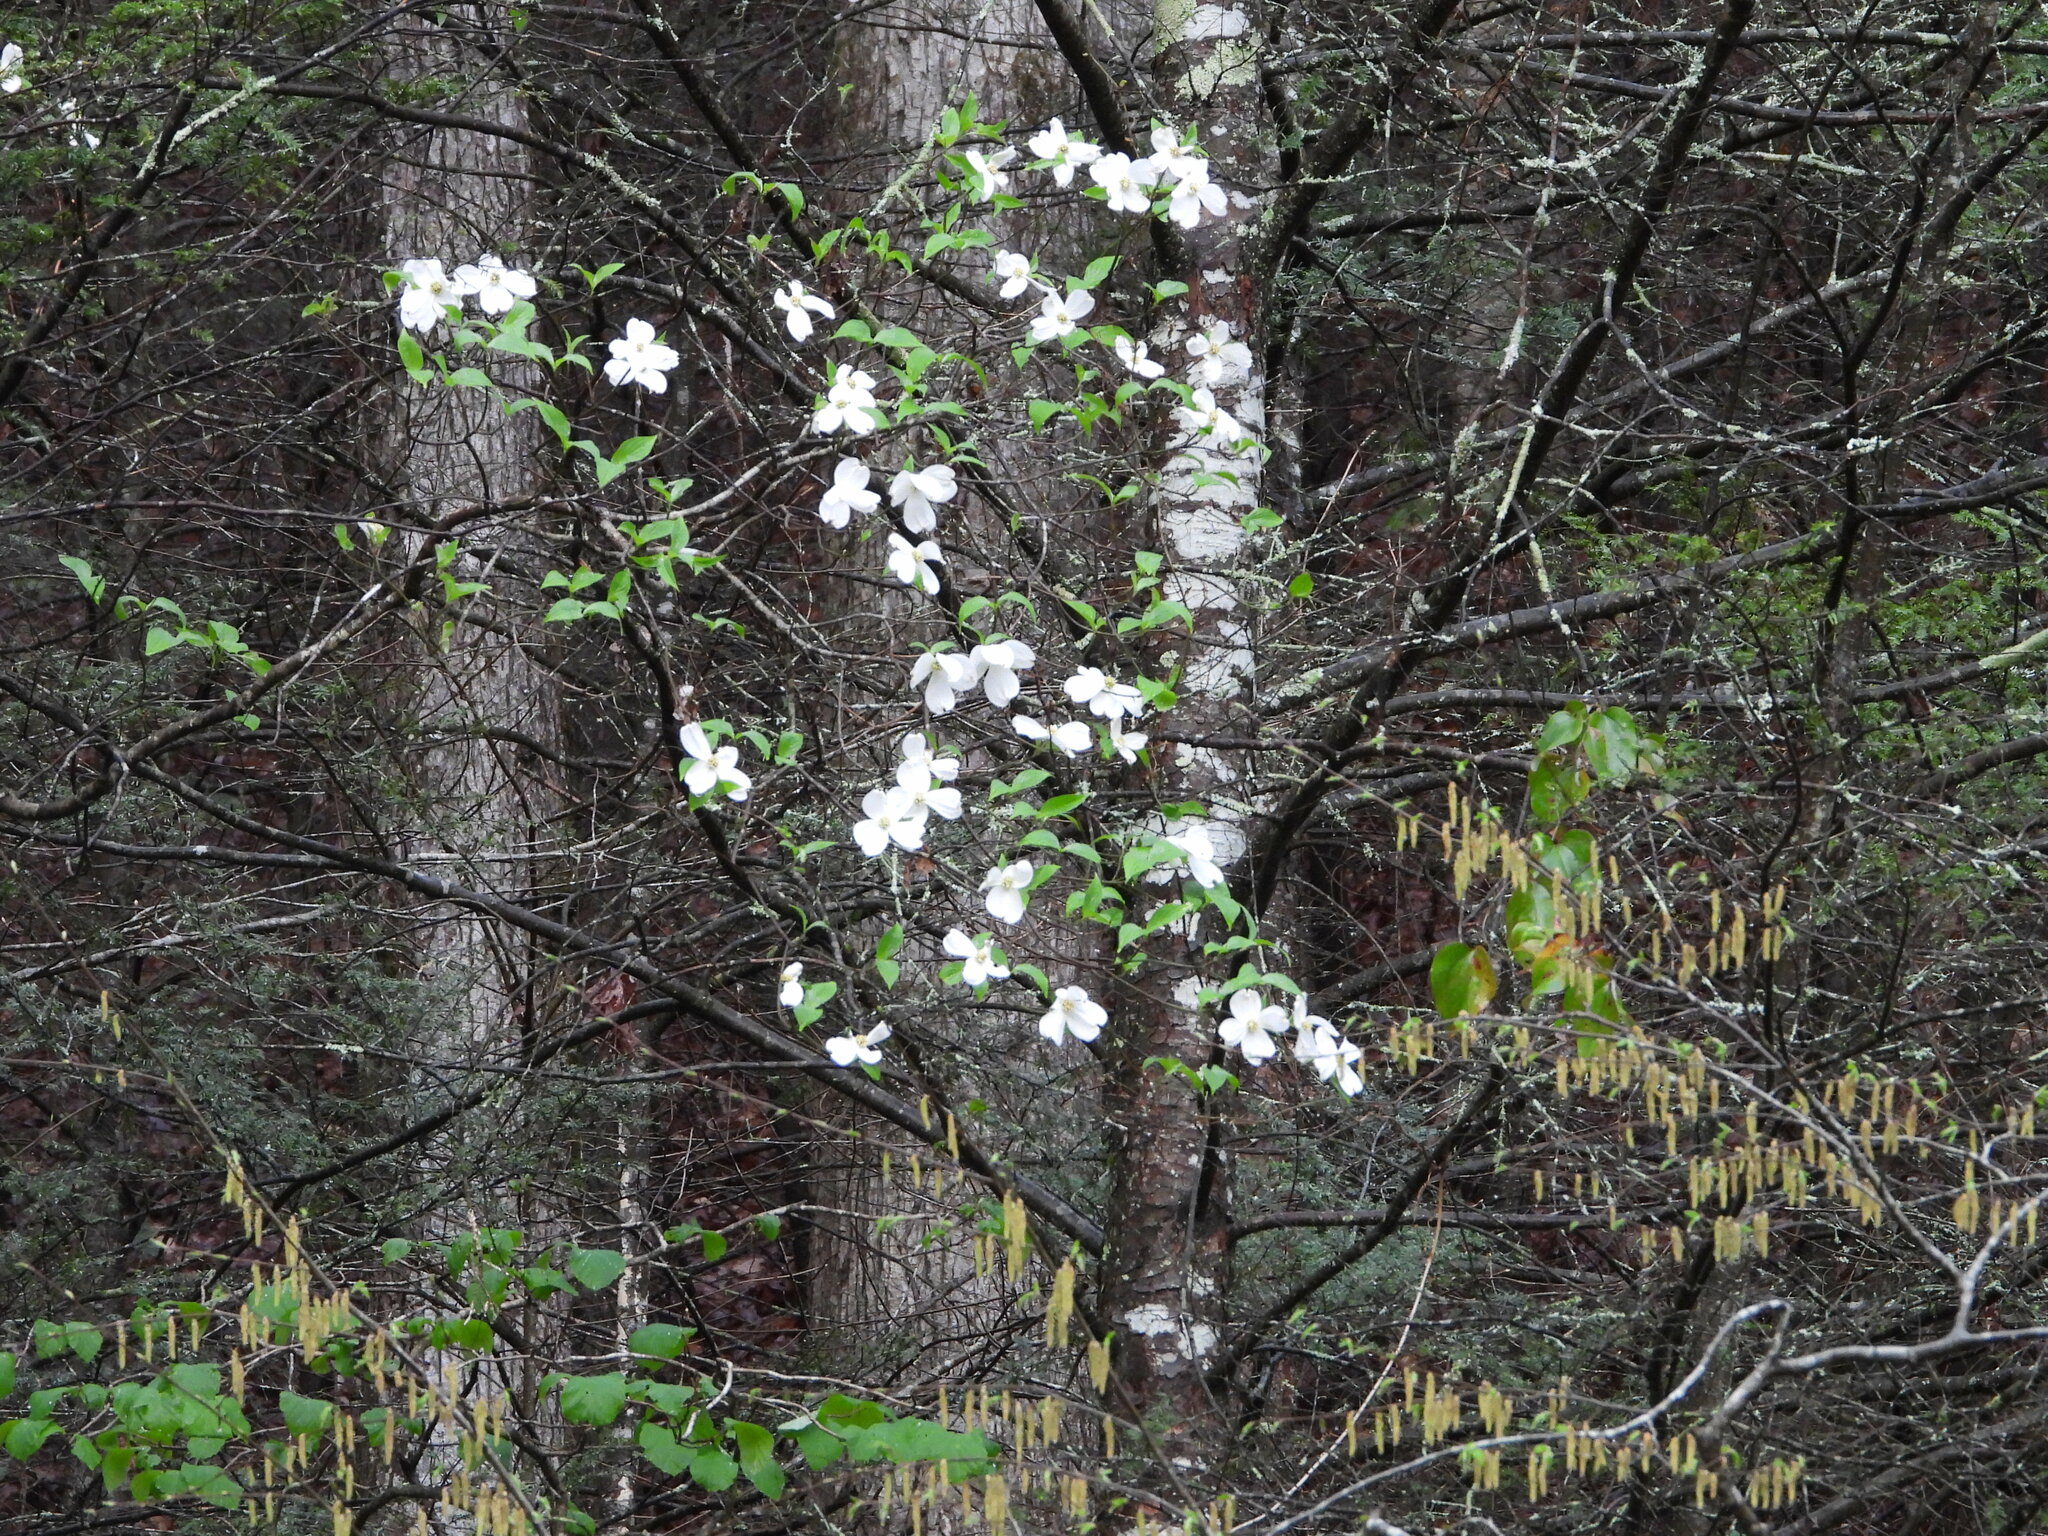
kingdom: Plantae
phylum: Tracheophyta
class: Magnoliopsida
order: Cornales
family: Cornaceae
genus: Cornus
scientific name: Cornus florida
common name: Flowering dogwood
